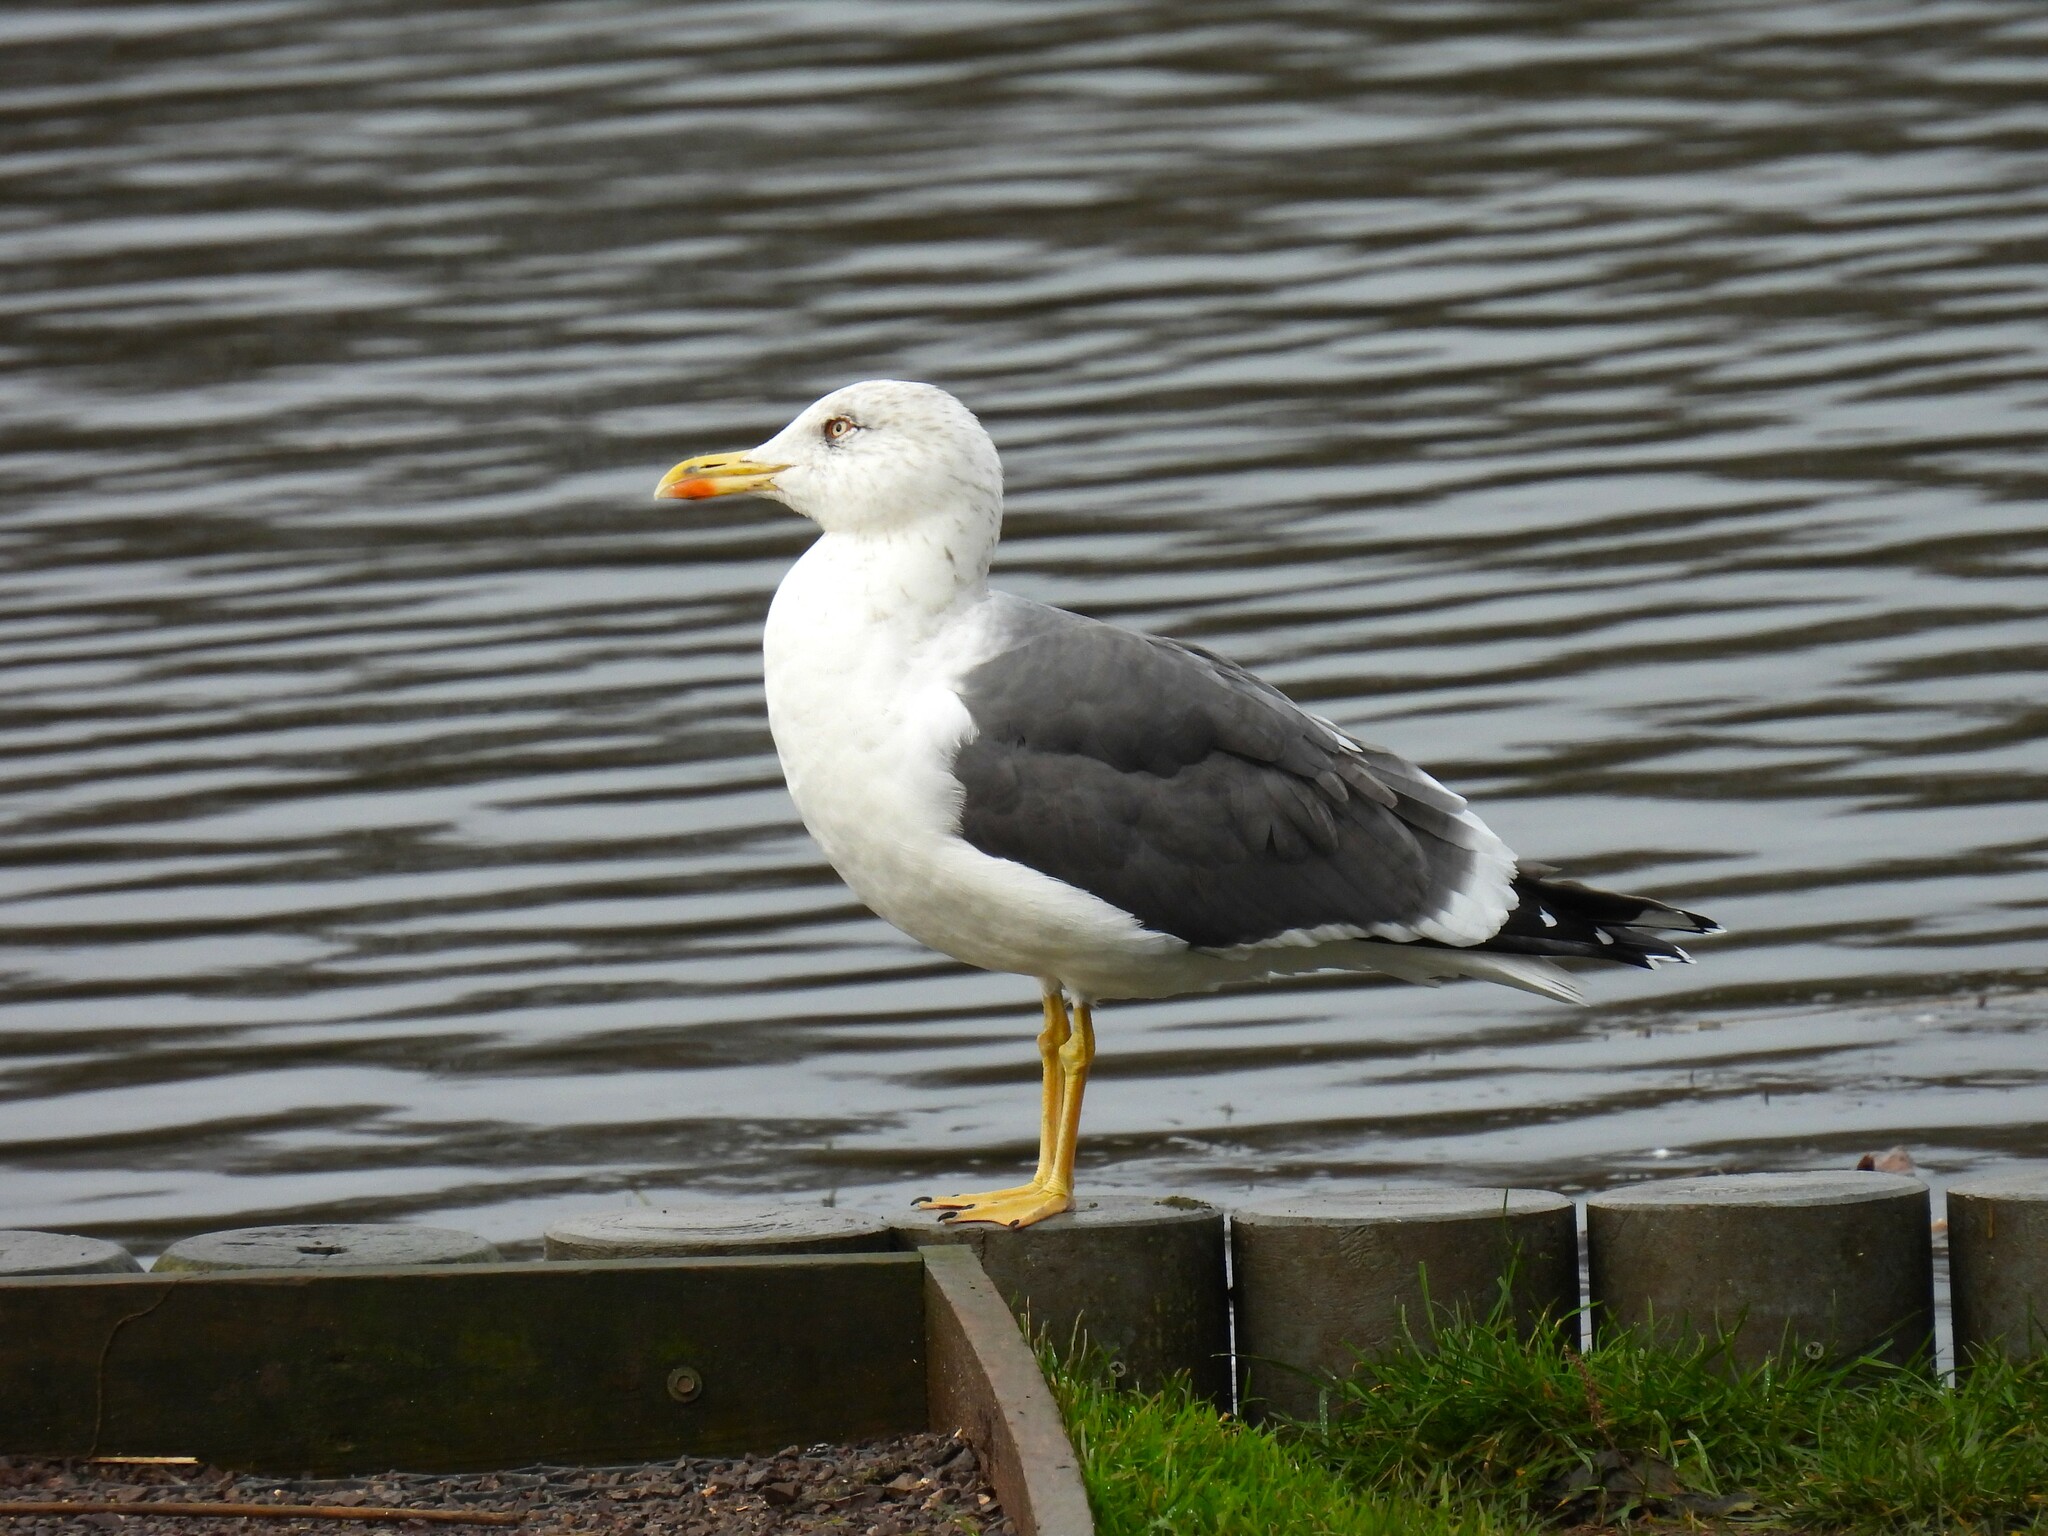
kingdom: Animalia
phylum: Chordata
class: Aves
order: Charadriiformes
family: Laridae
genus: Larus
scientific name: Larus fuscus
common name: Lesser black-backed gull
